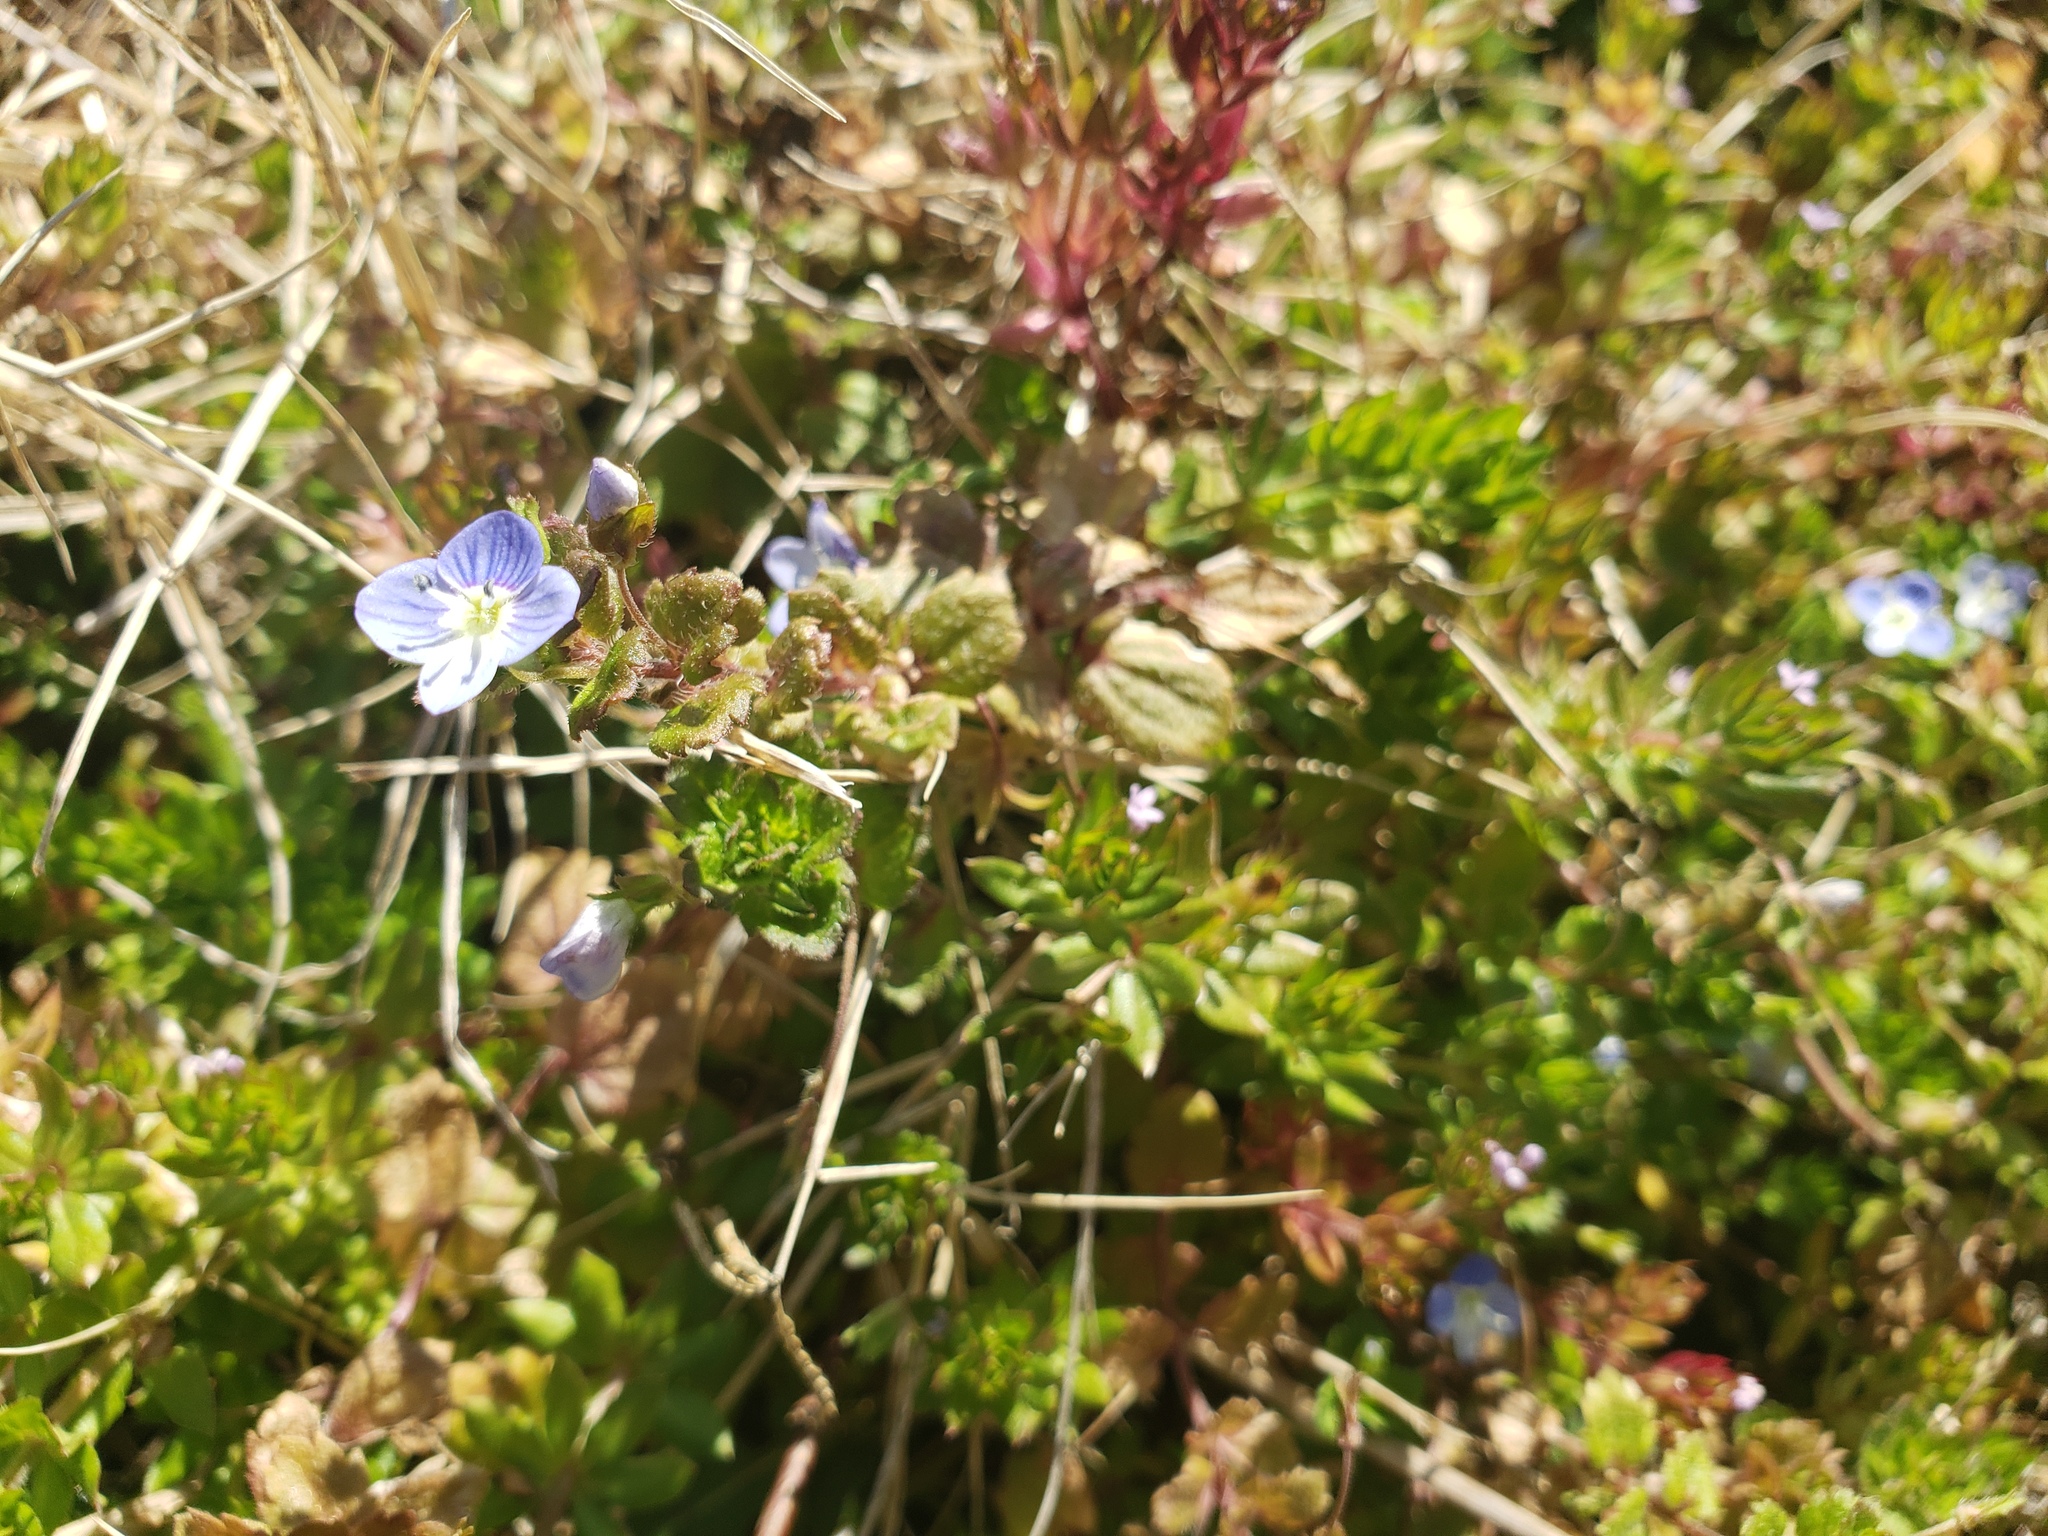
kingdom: Plantae
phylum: Tracheophyta
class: Magnoliopsida
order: Lamiales
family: Plantaginaceae
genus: Veronica
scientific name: Veronica persica
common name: Common field-speedwell
